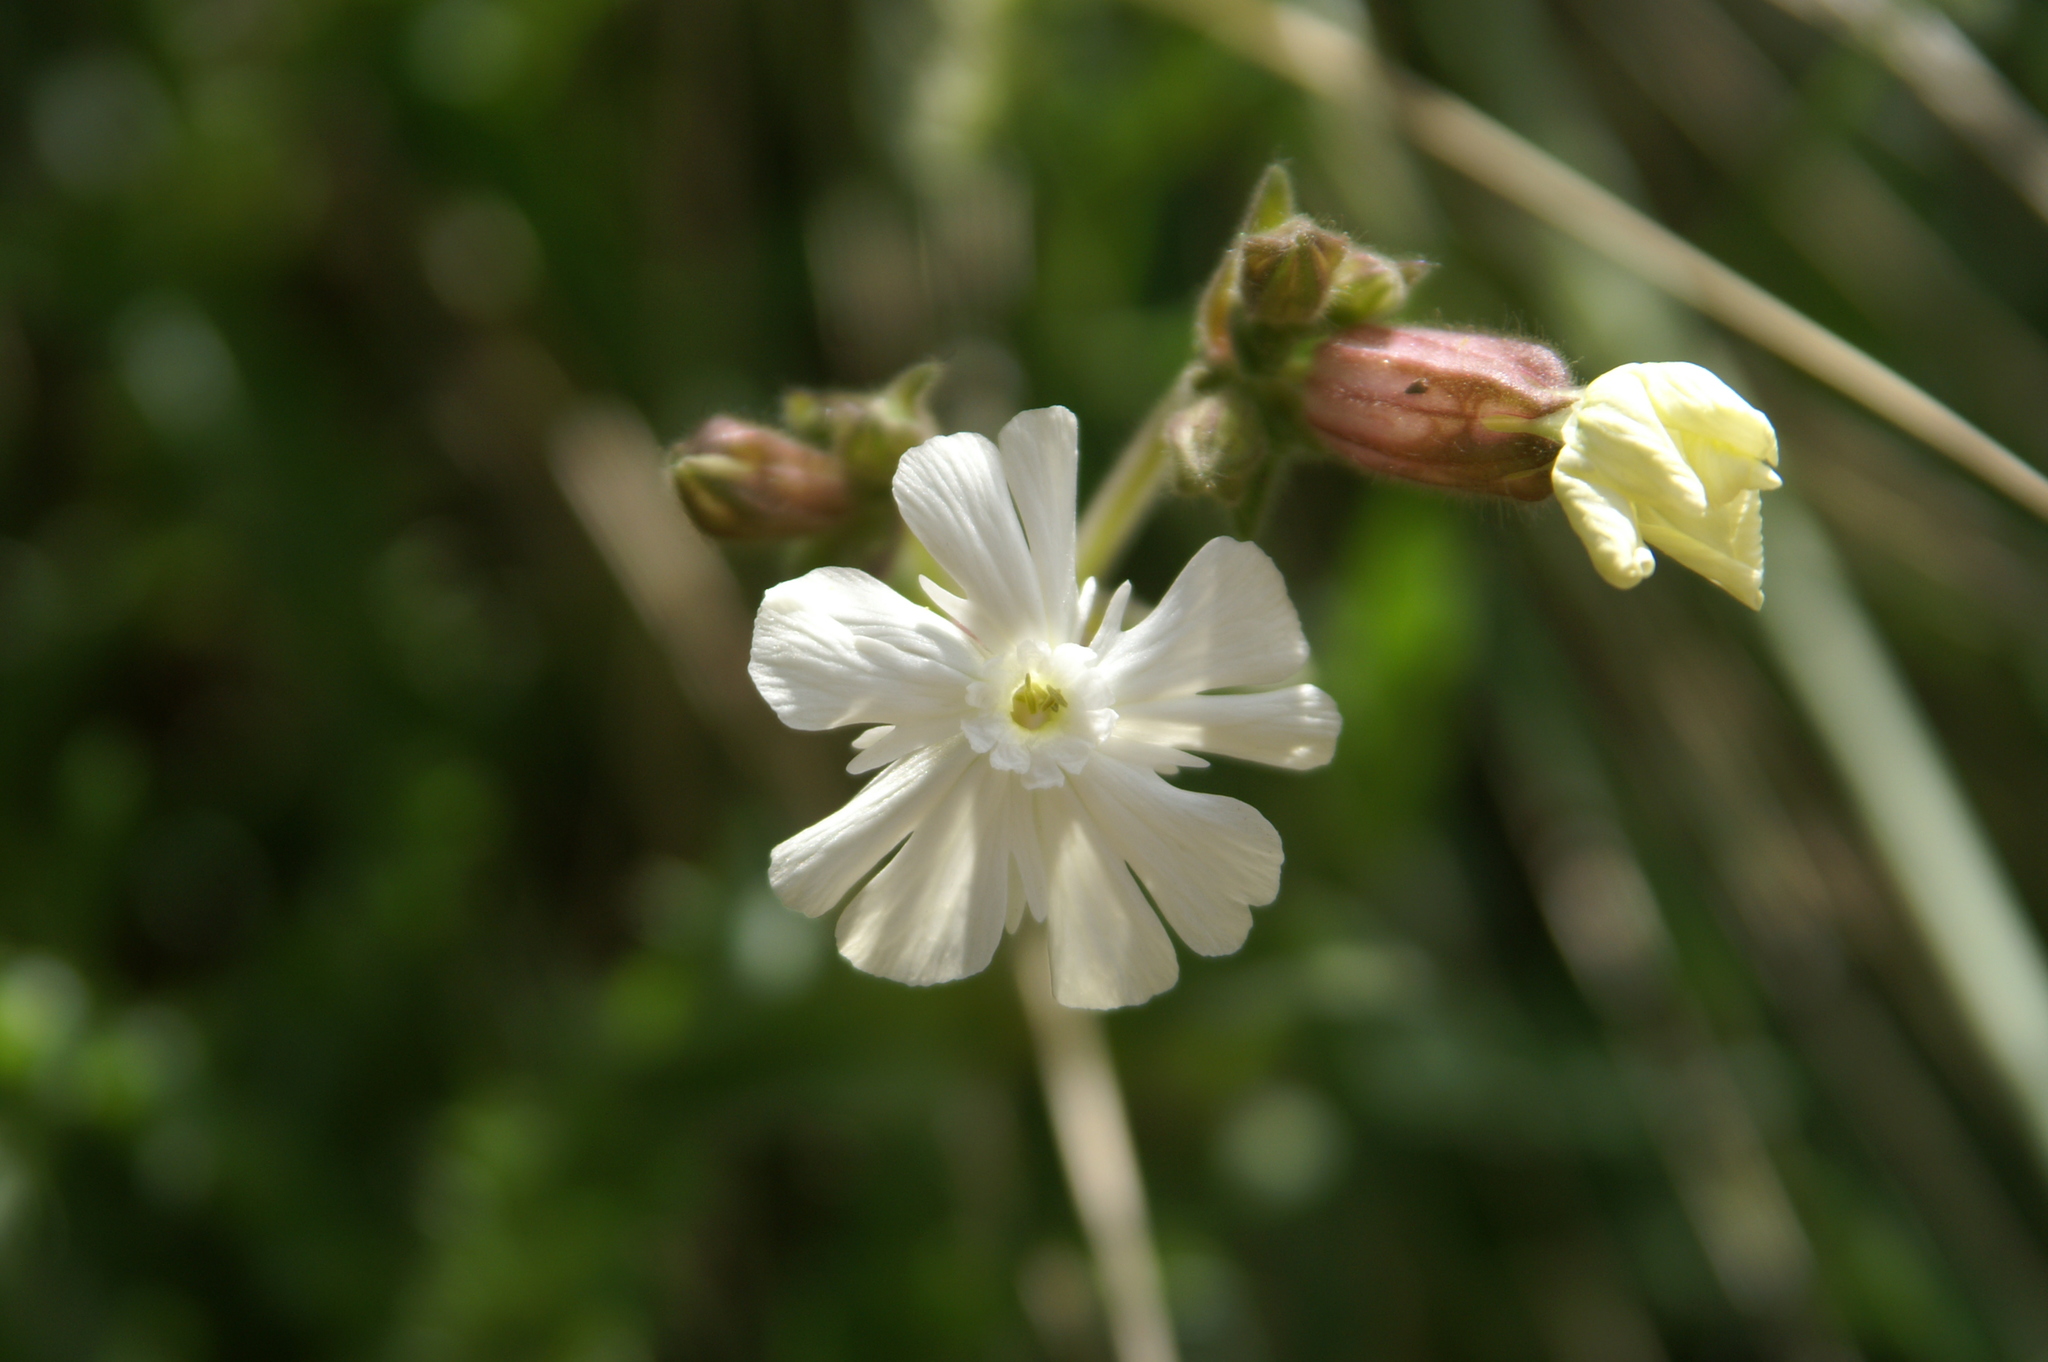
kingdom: Plantae
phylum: Tracheophyta
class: Magnoliopsida
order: Caryophyllales
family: Caryophyllaceae
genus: Silene
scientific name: Silene latifolia
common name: White campion
